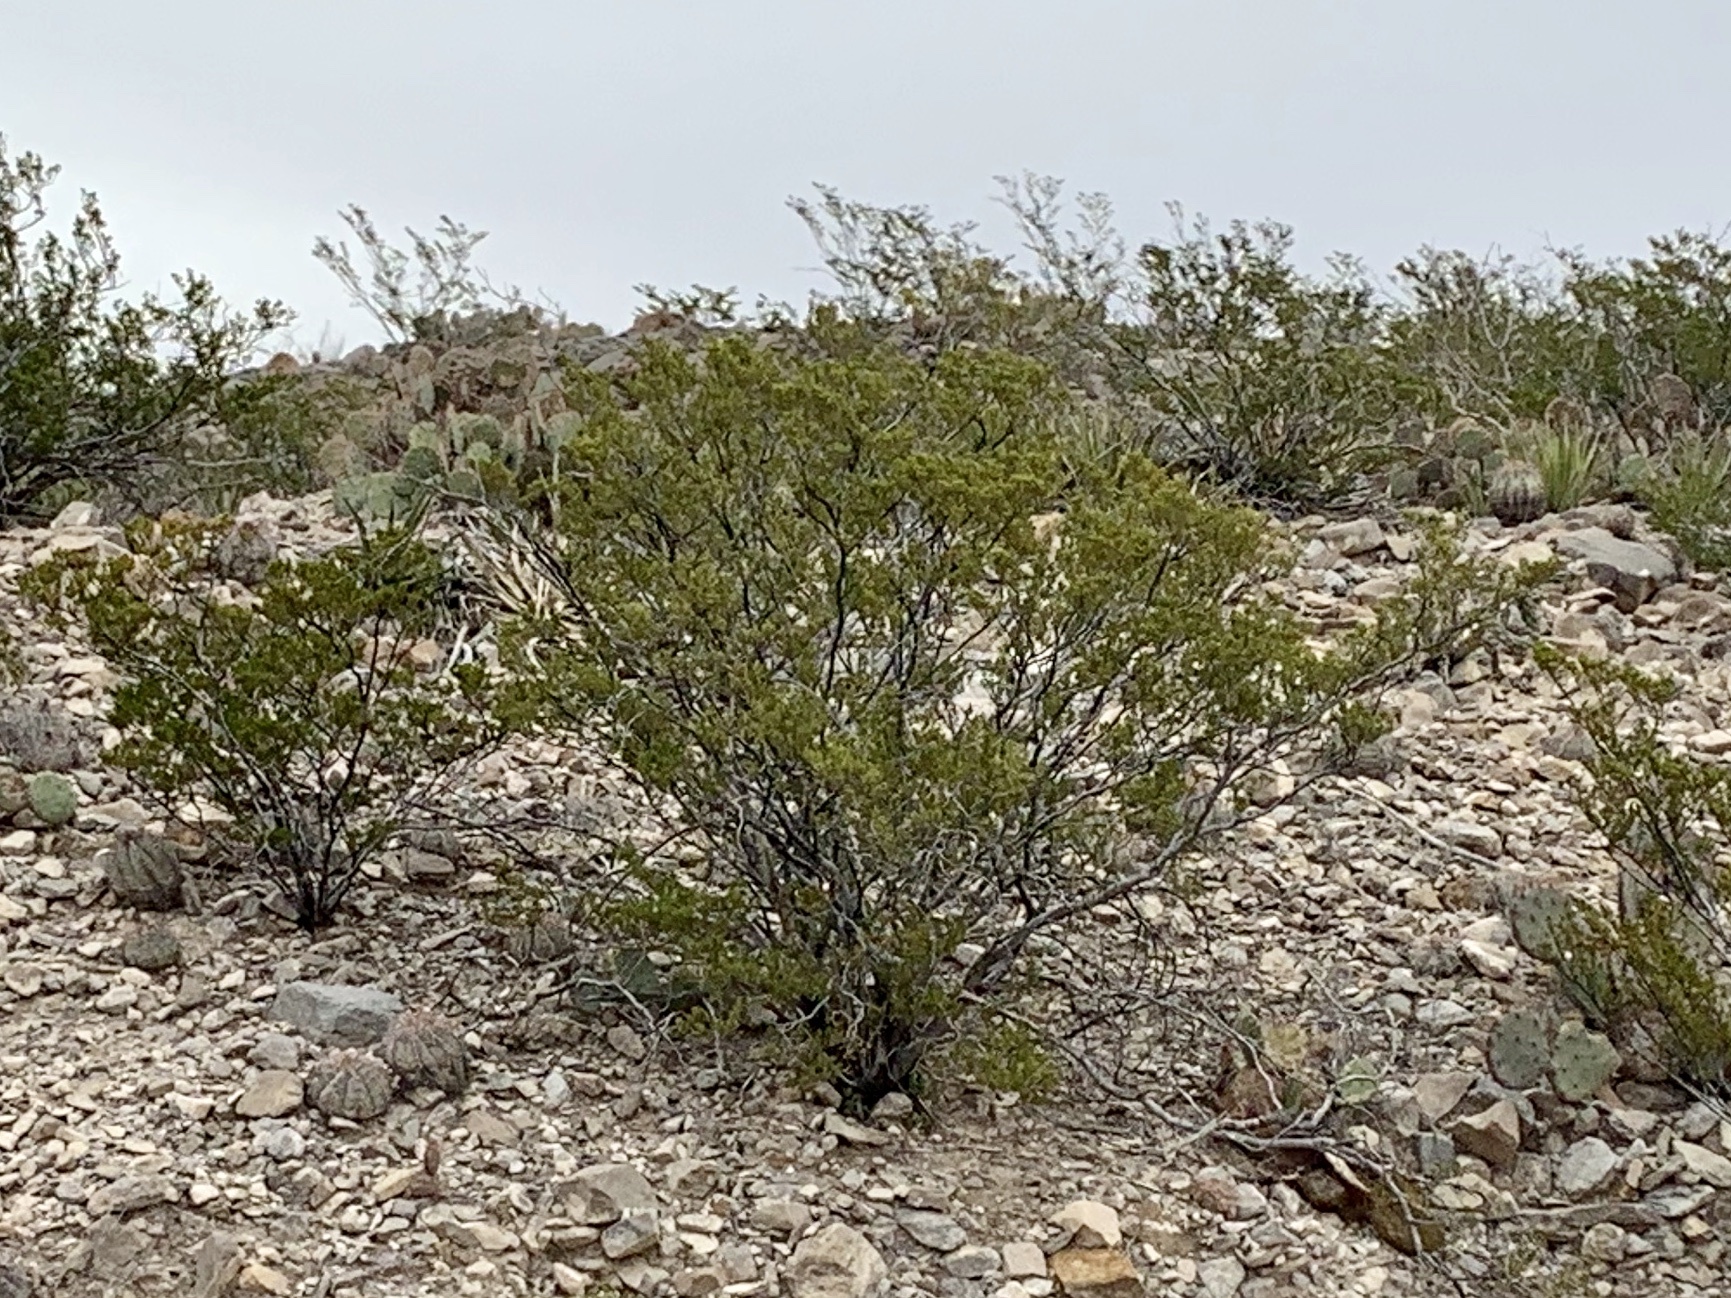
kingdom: Plantae
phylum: Tracheophyta
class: Magnoliopsida
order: Zygophyllales
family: Zygophyllaceae
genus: Larrea
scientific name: Larrea tridentata
